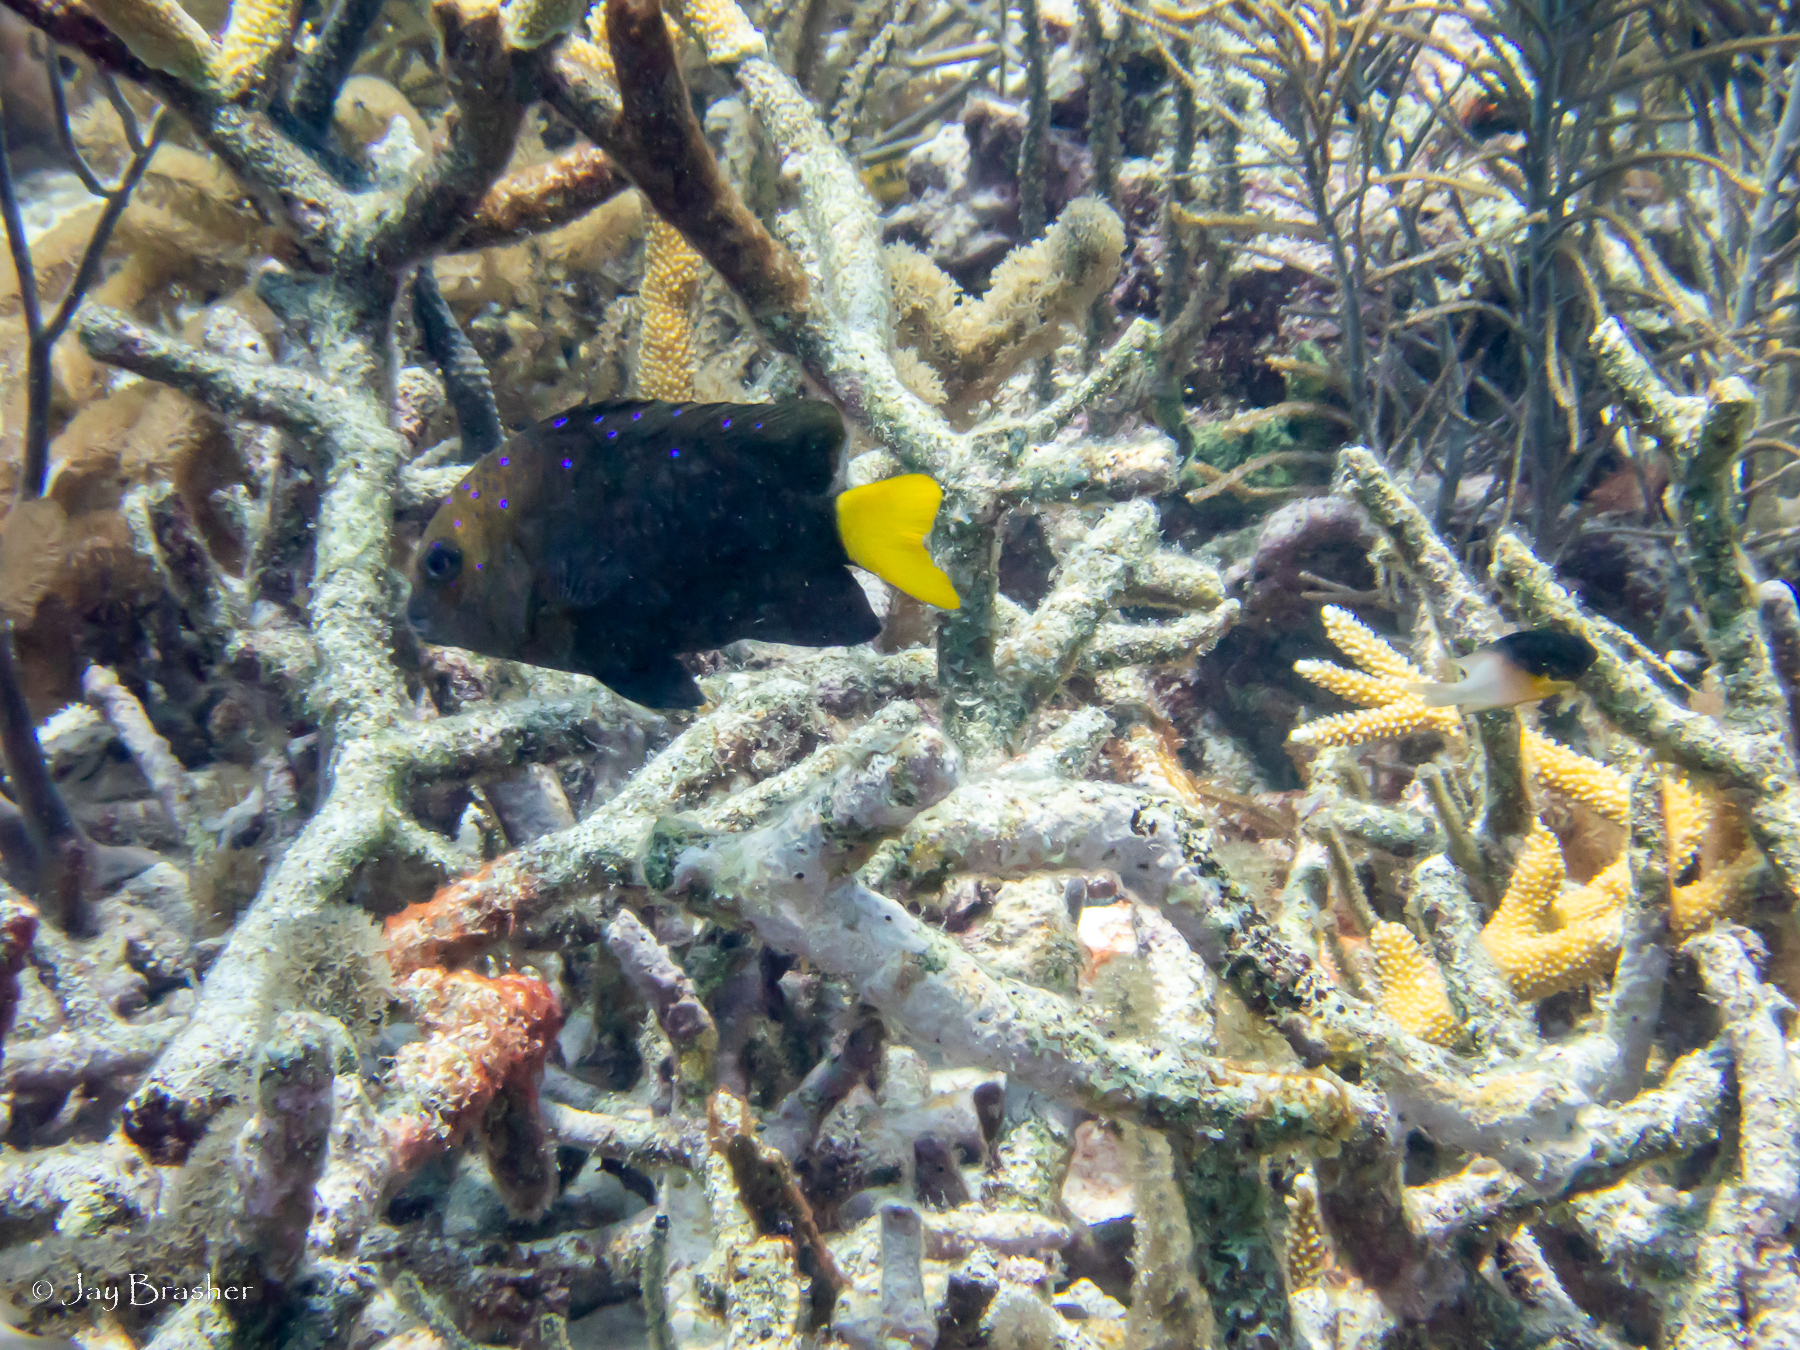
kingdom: Animalia
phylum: Chordata
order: Perciformes
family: Pomacentridae
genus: Stegastes
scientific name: Stegastes partitus
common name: Bicolor damselfish
